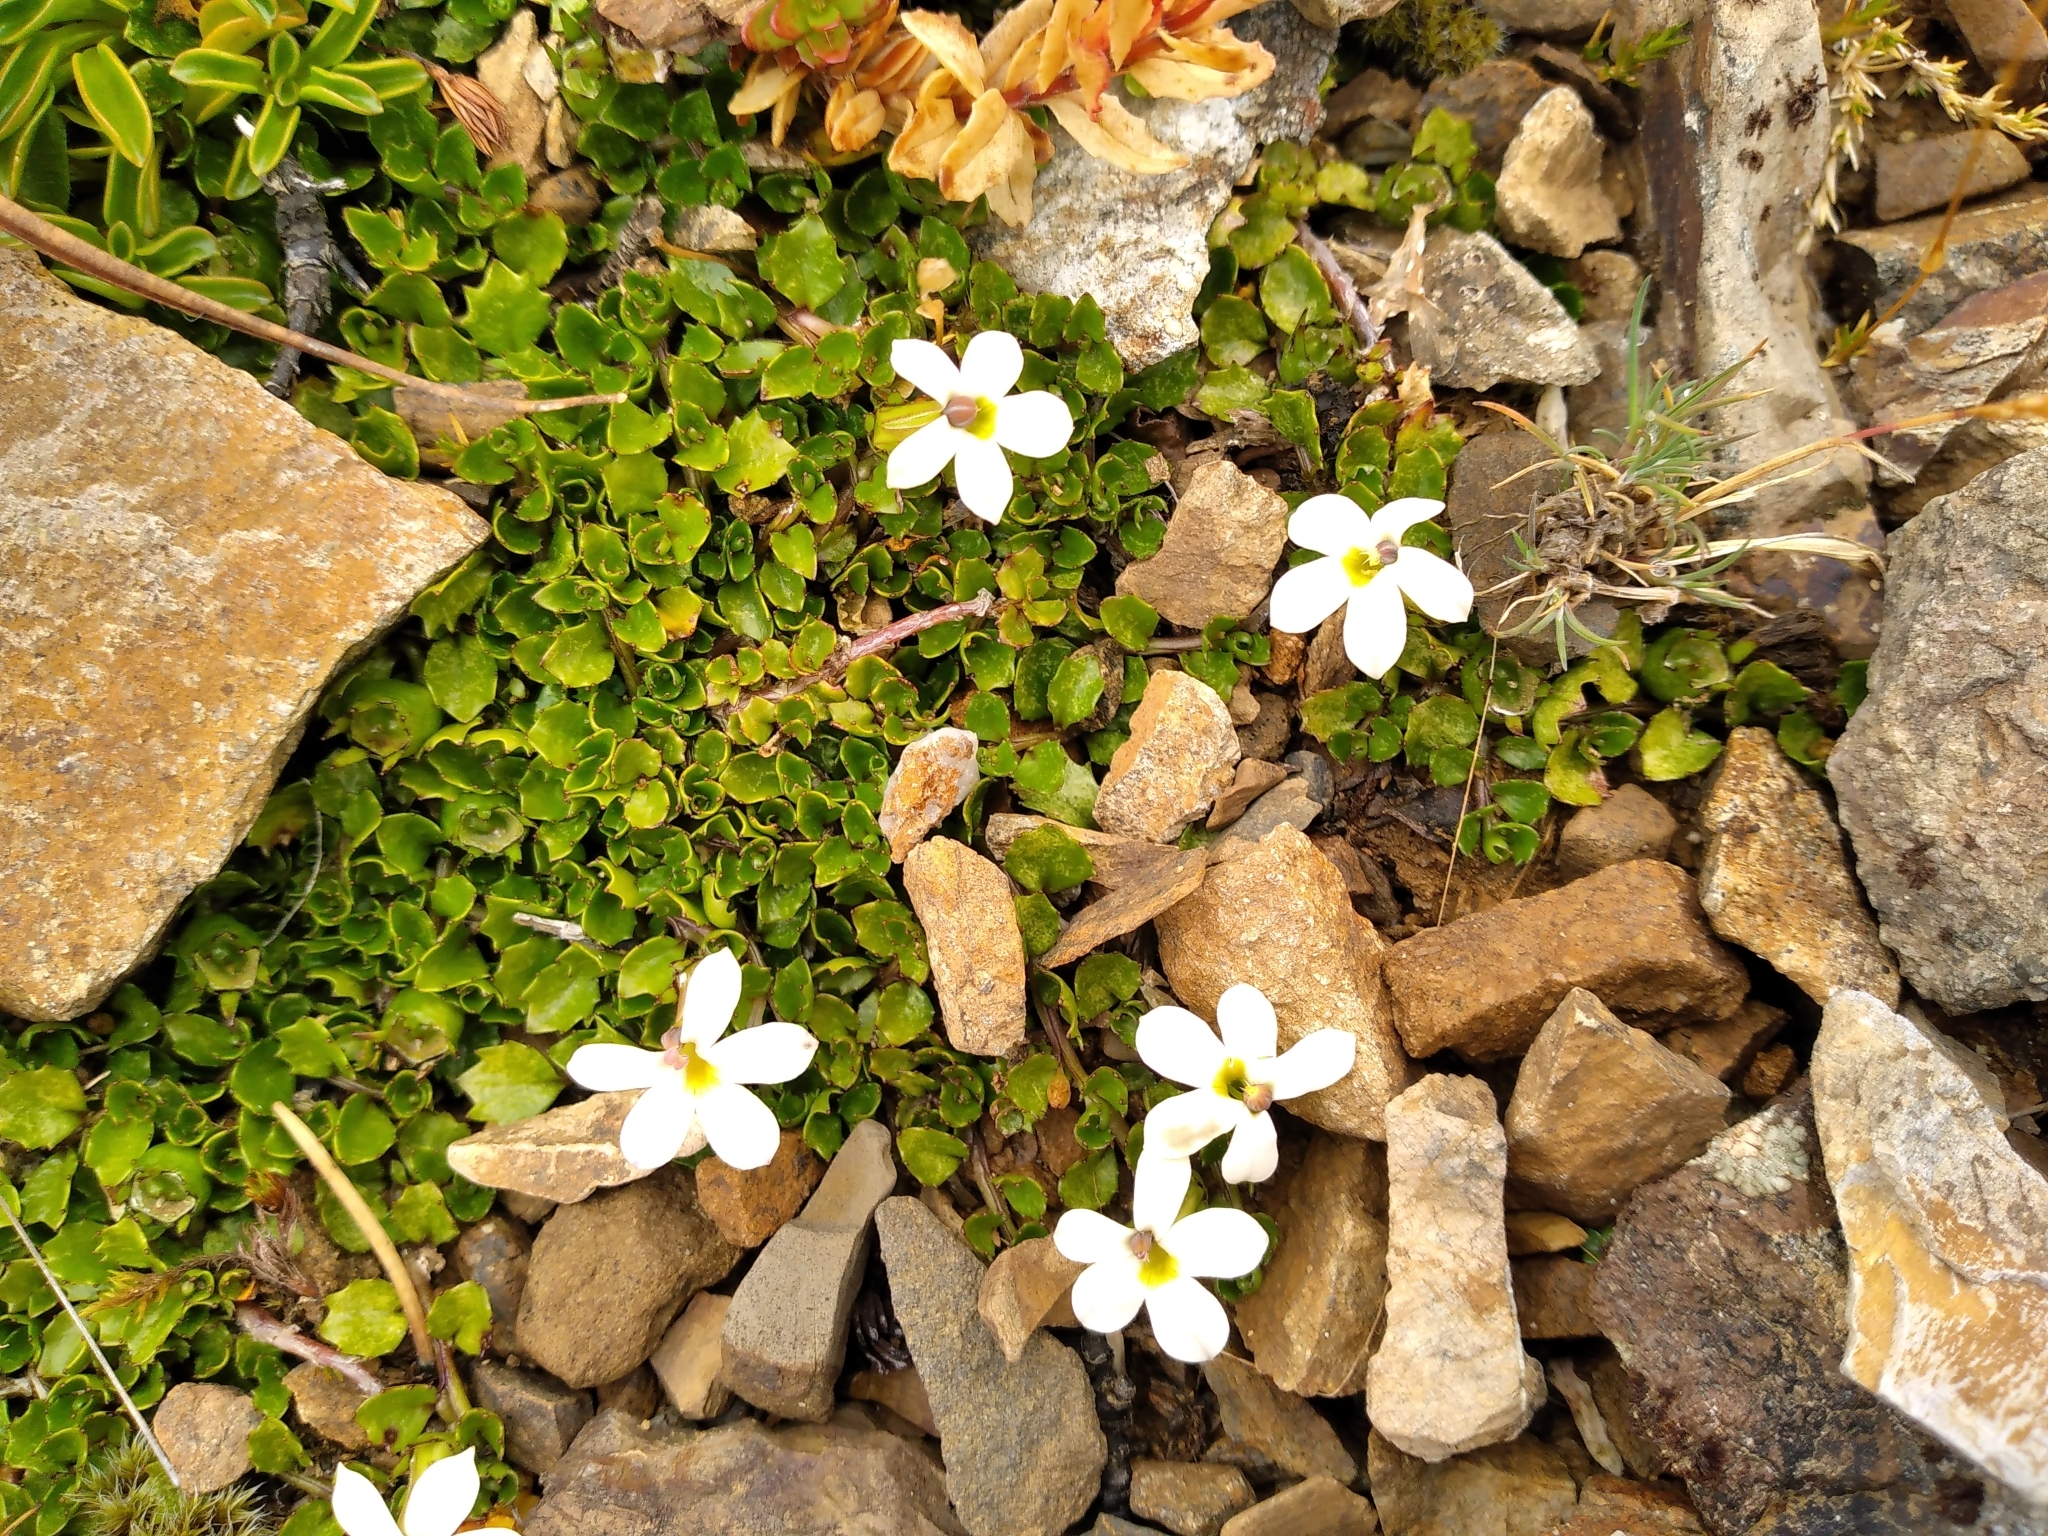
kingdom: Plantae
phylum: Tracheophyta
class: Magnoliopsida
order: Asterales
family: Campanulaceae
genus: Lobelia
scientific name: Lobelia macrodon
